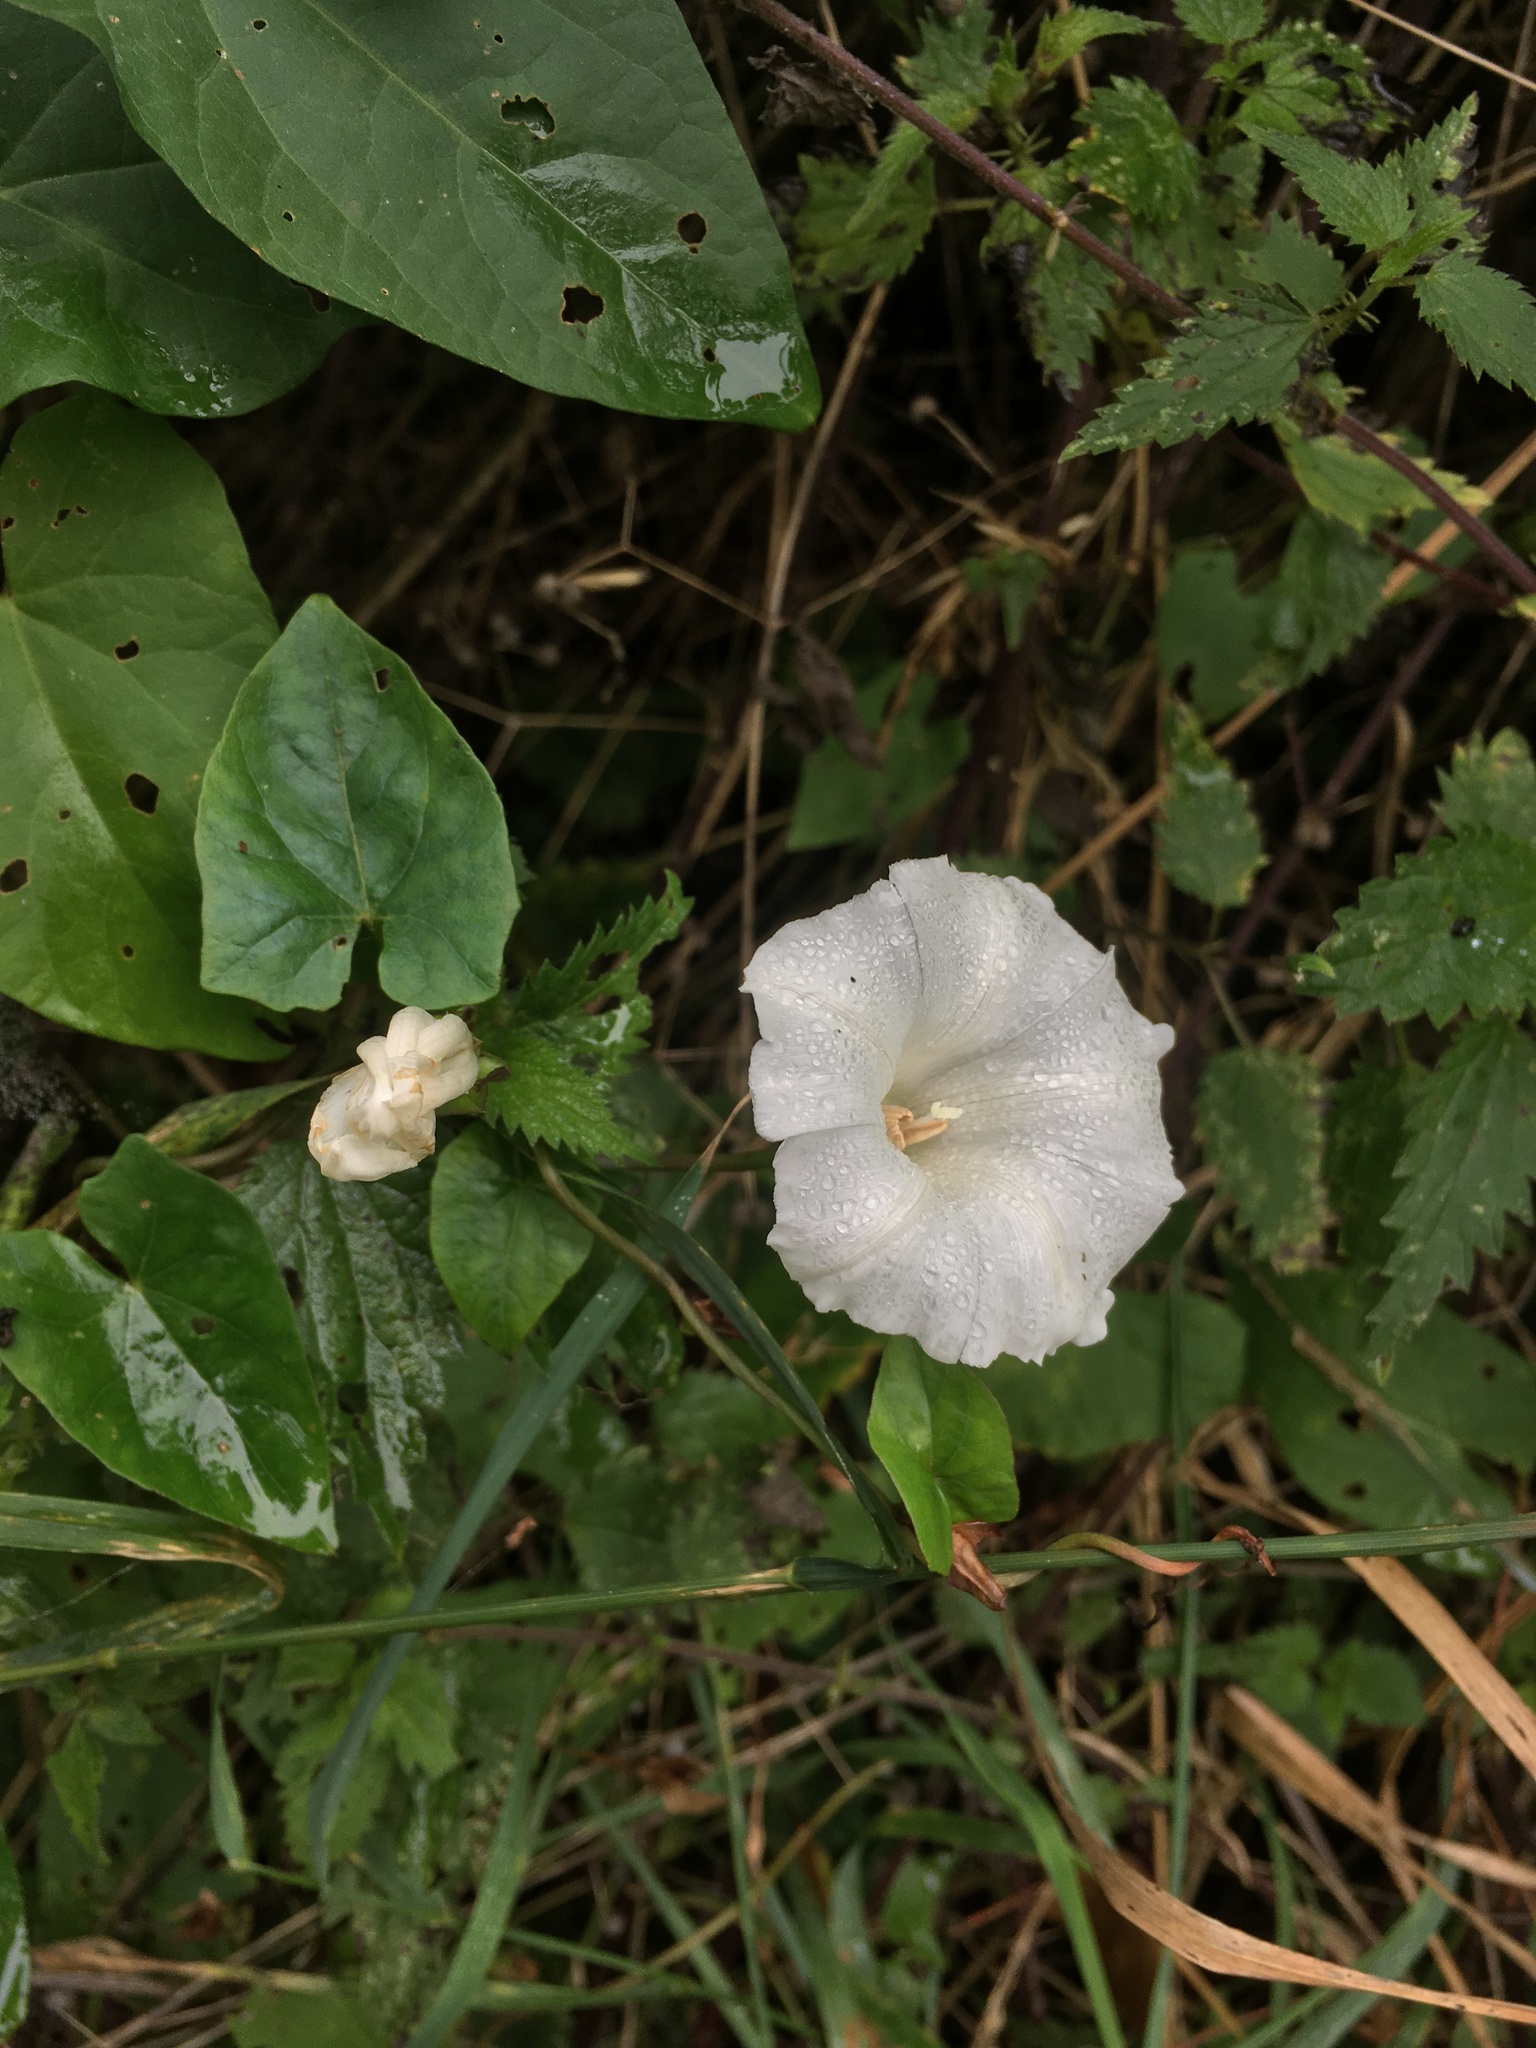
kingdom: Plantae
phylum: Tracheophyta
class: Magnoliopsida
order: Solanales
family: Convolvulaceae
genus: Calystegia
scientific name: Calystegia
